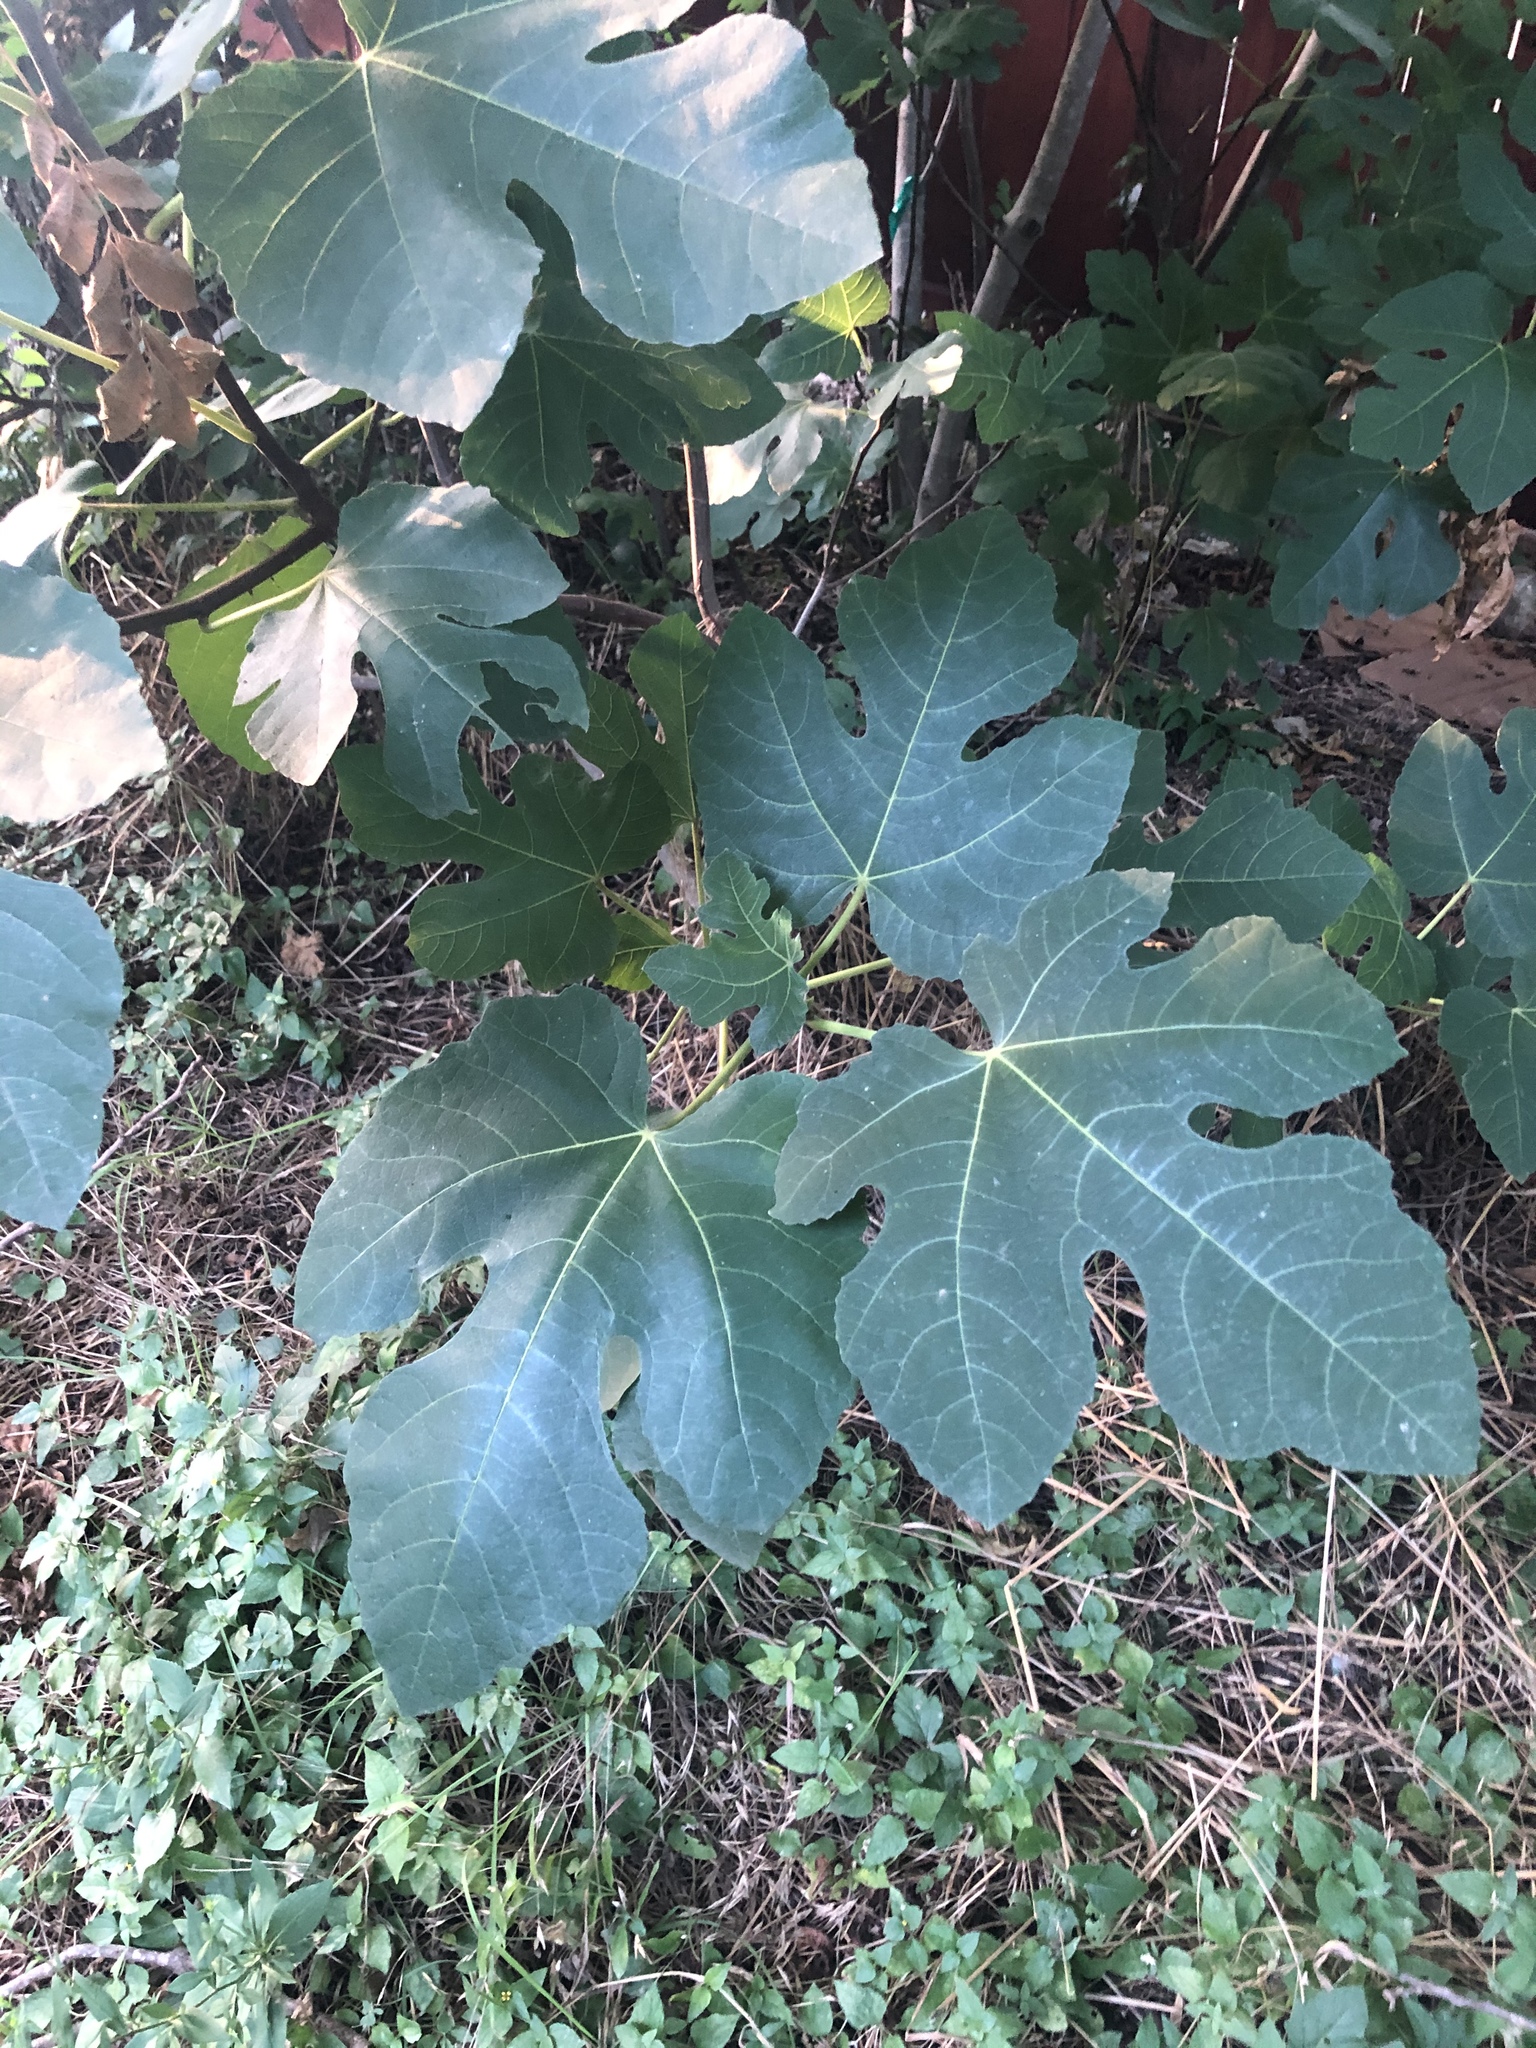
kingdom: Plantae
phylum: Tracheophyta
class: Magnoliopsida
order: Rosales
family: Moraceae
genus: Ficus
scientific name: Ficus carica
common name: Fig
